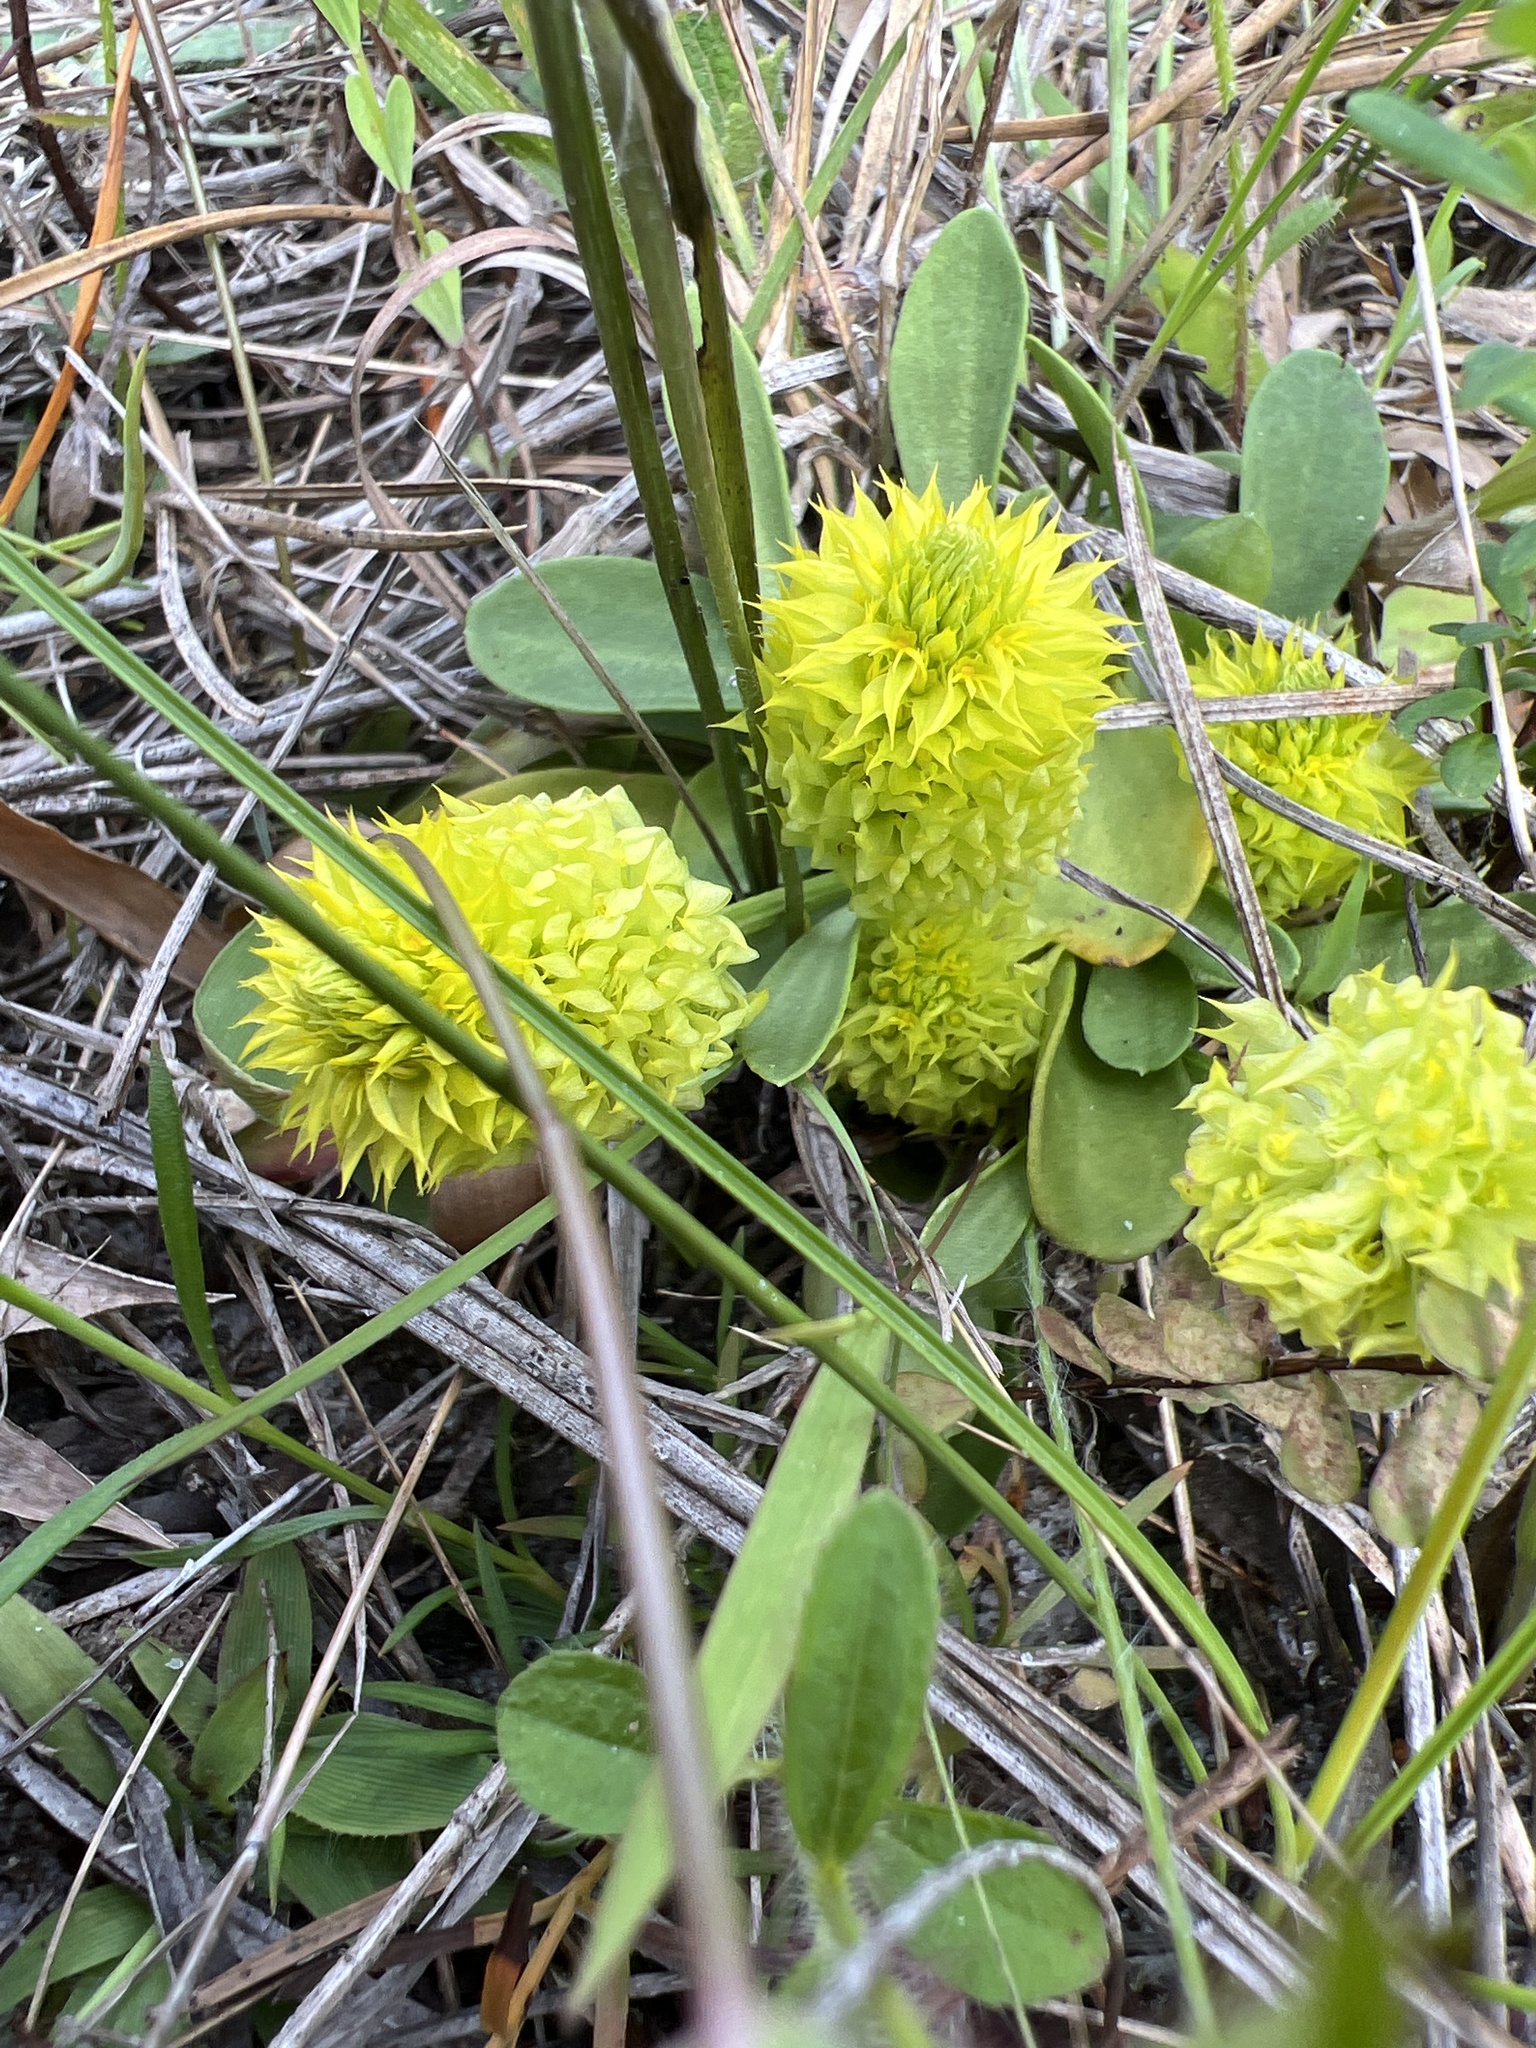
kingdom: Plantae
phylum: Tracheophyta
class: Magnoliopsida
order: Fabales
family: Polygalaceae
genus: Polygala
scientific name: Polygala nana
